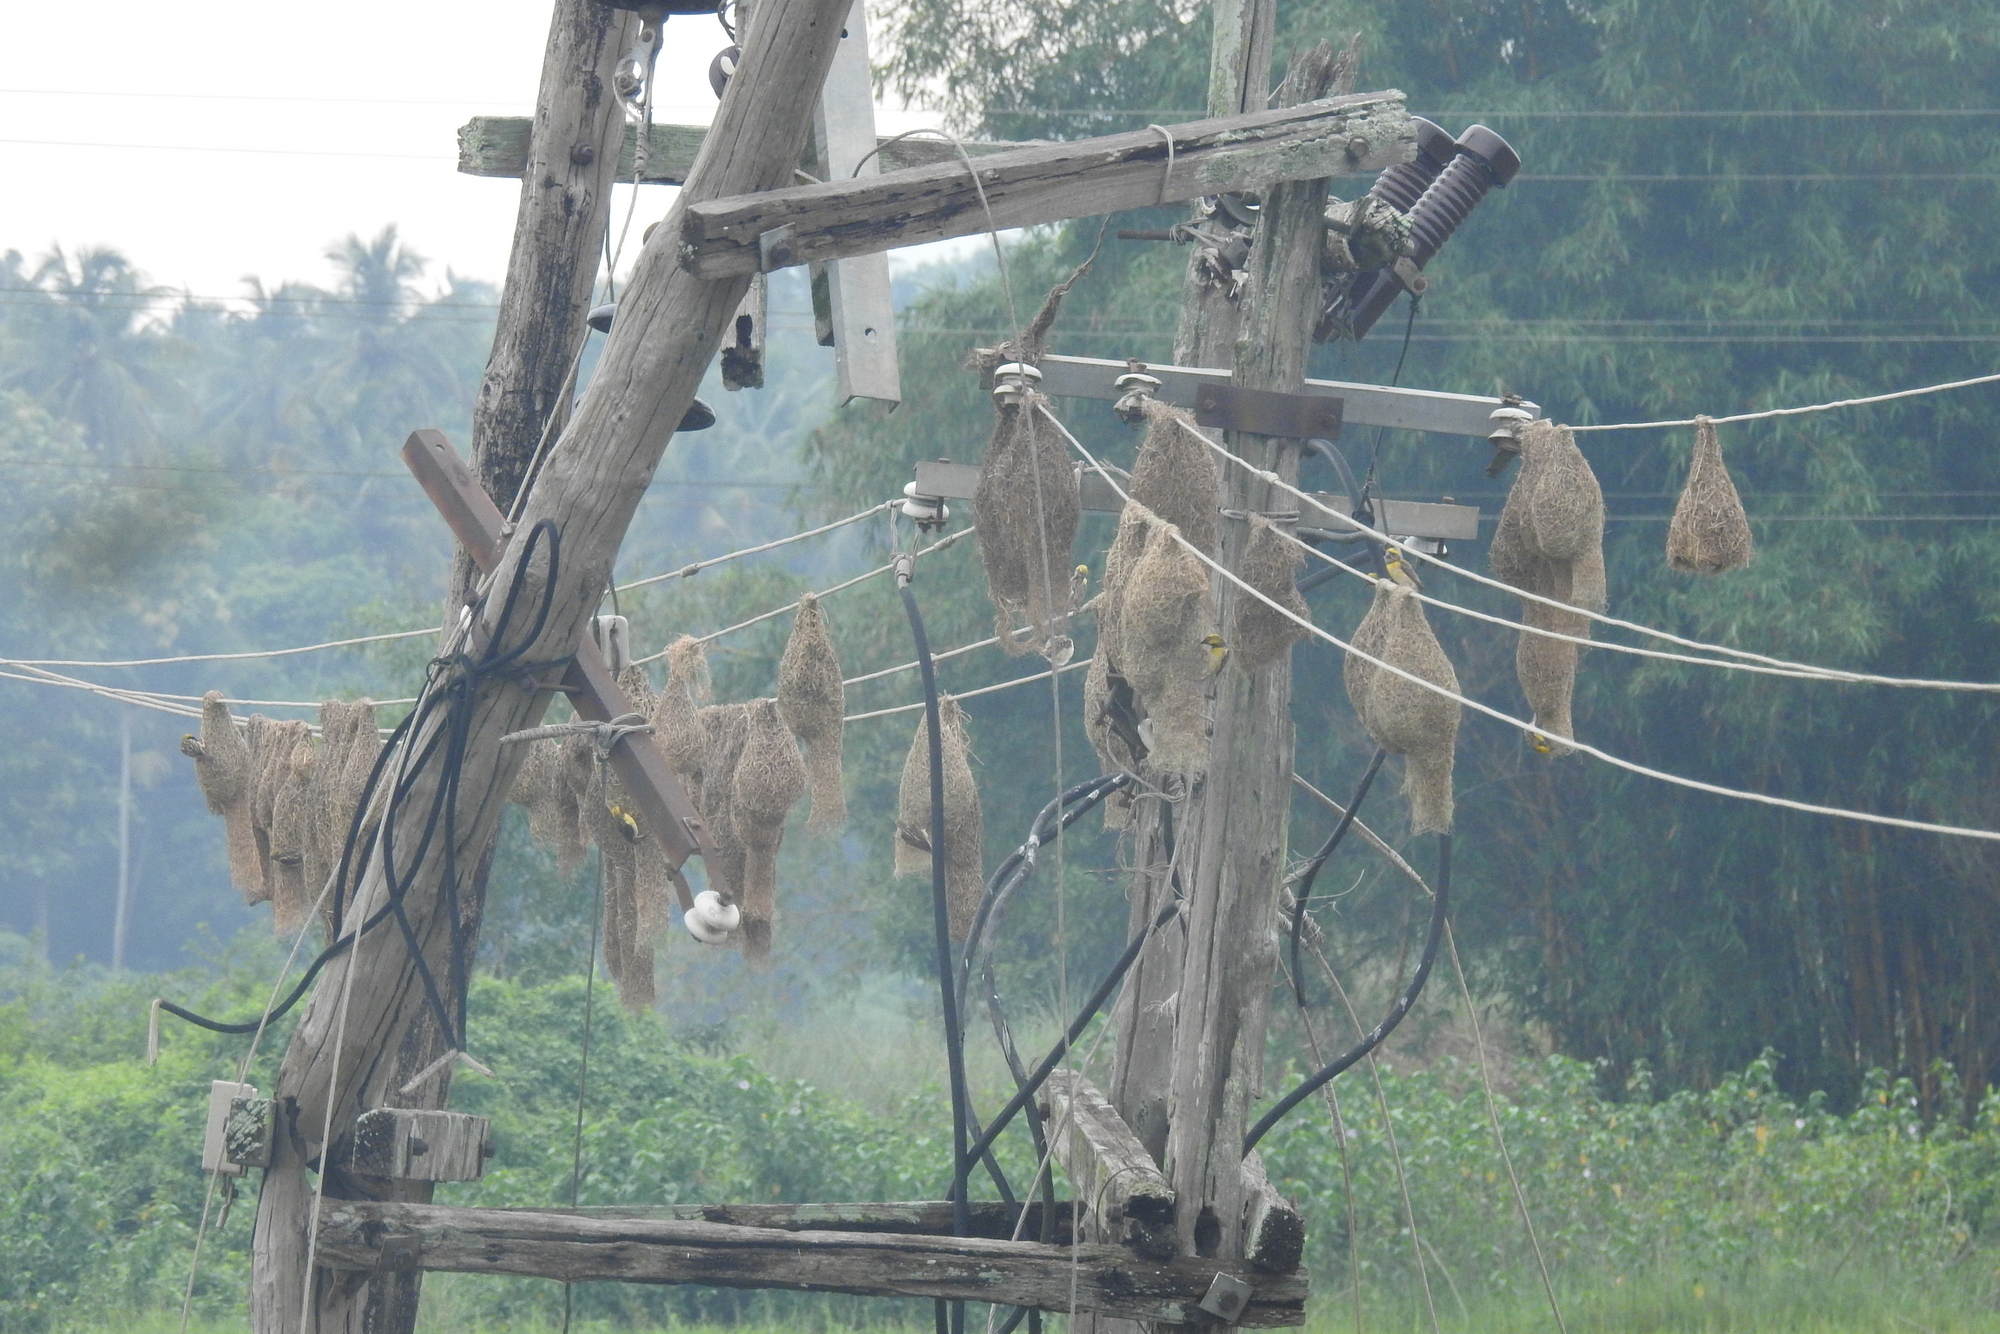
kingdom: Animalia
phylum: Chordata
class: Aves
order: Passeriformes
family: Ploceidae
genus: Ploceus
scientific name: Ploceus philippinus
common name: Baya weaver
